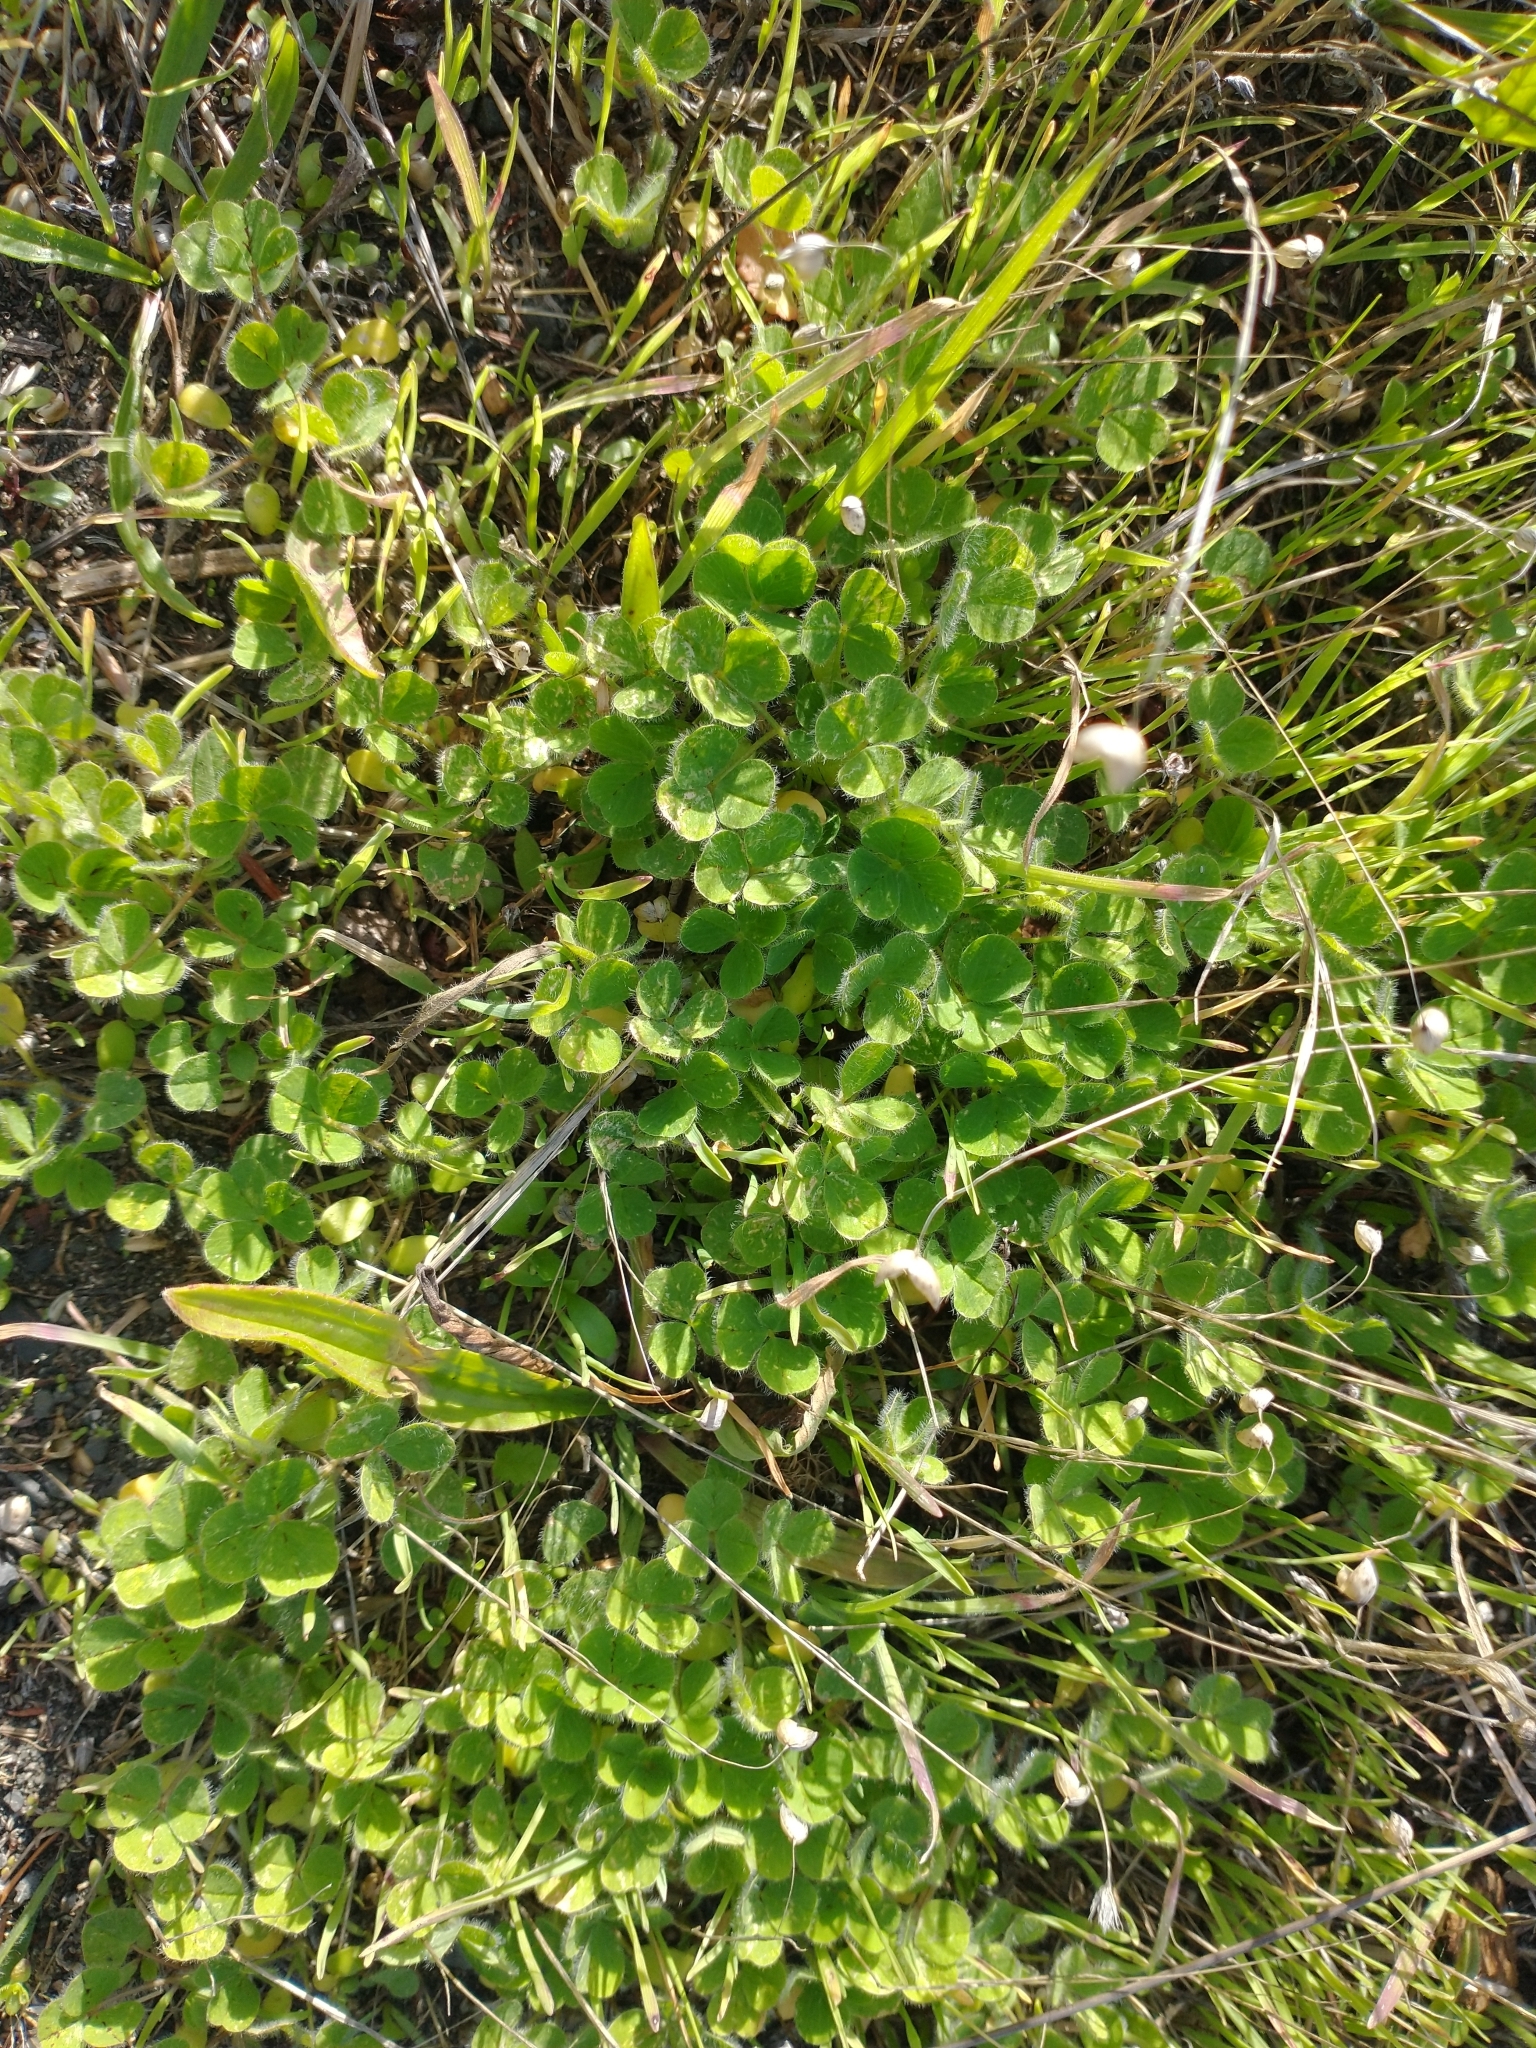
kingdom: Plantae
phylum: Tracheophyta
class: Magnoliopsida
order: Fabales
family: Fabaceae
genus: Trifolium
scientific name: Trifolium subterraneum
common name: Subterranean clover
